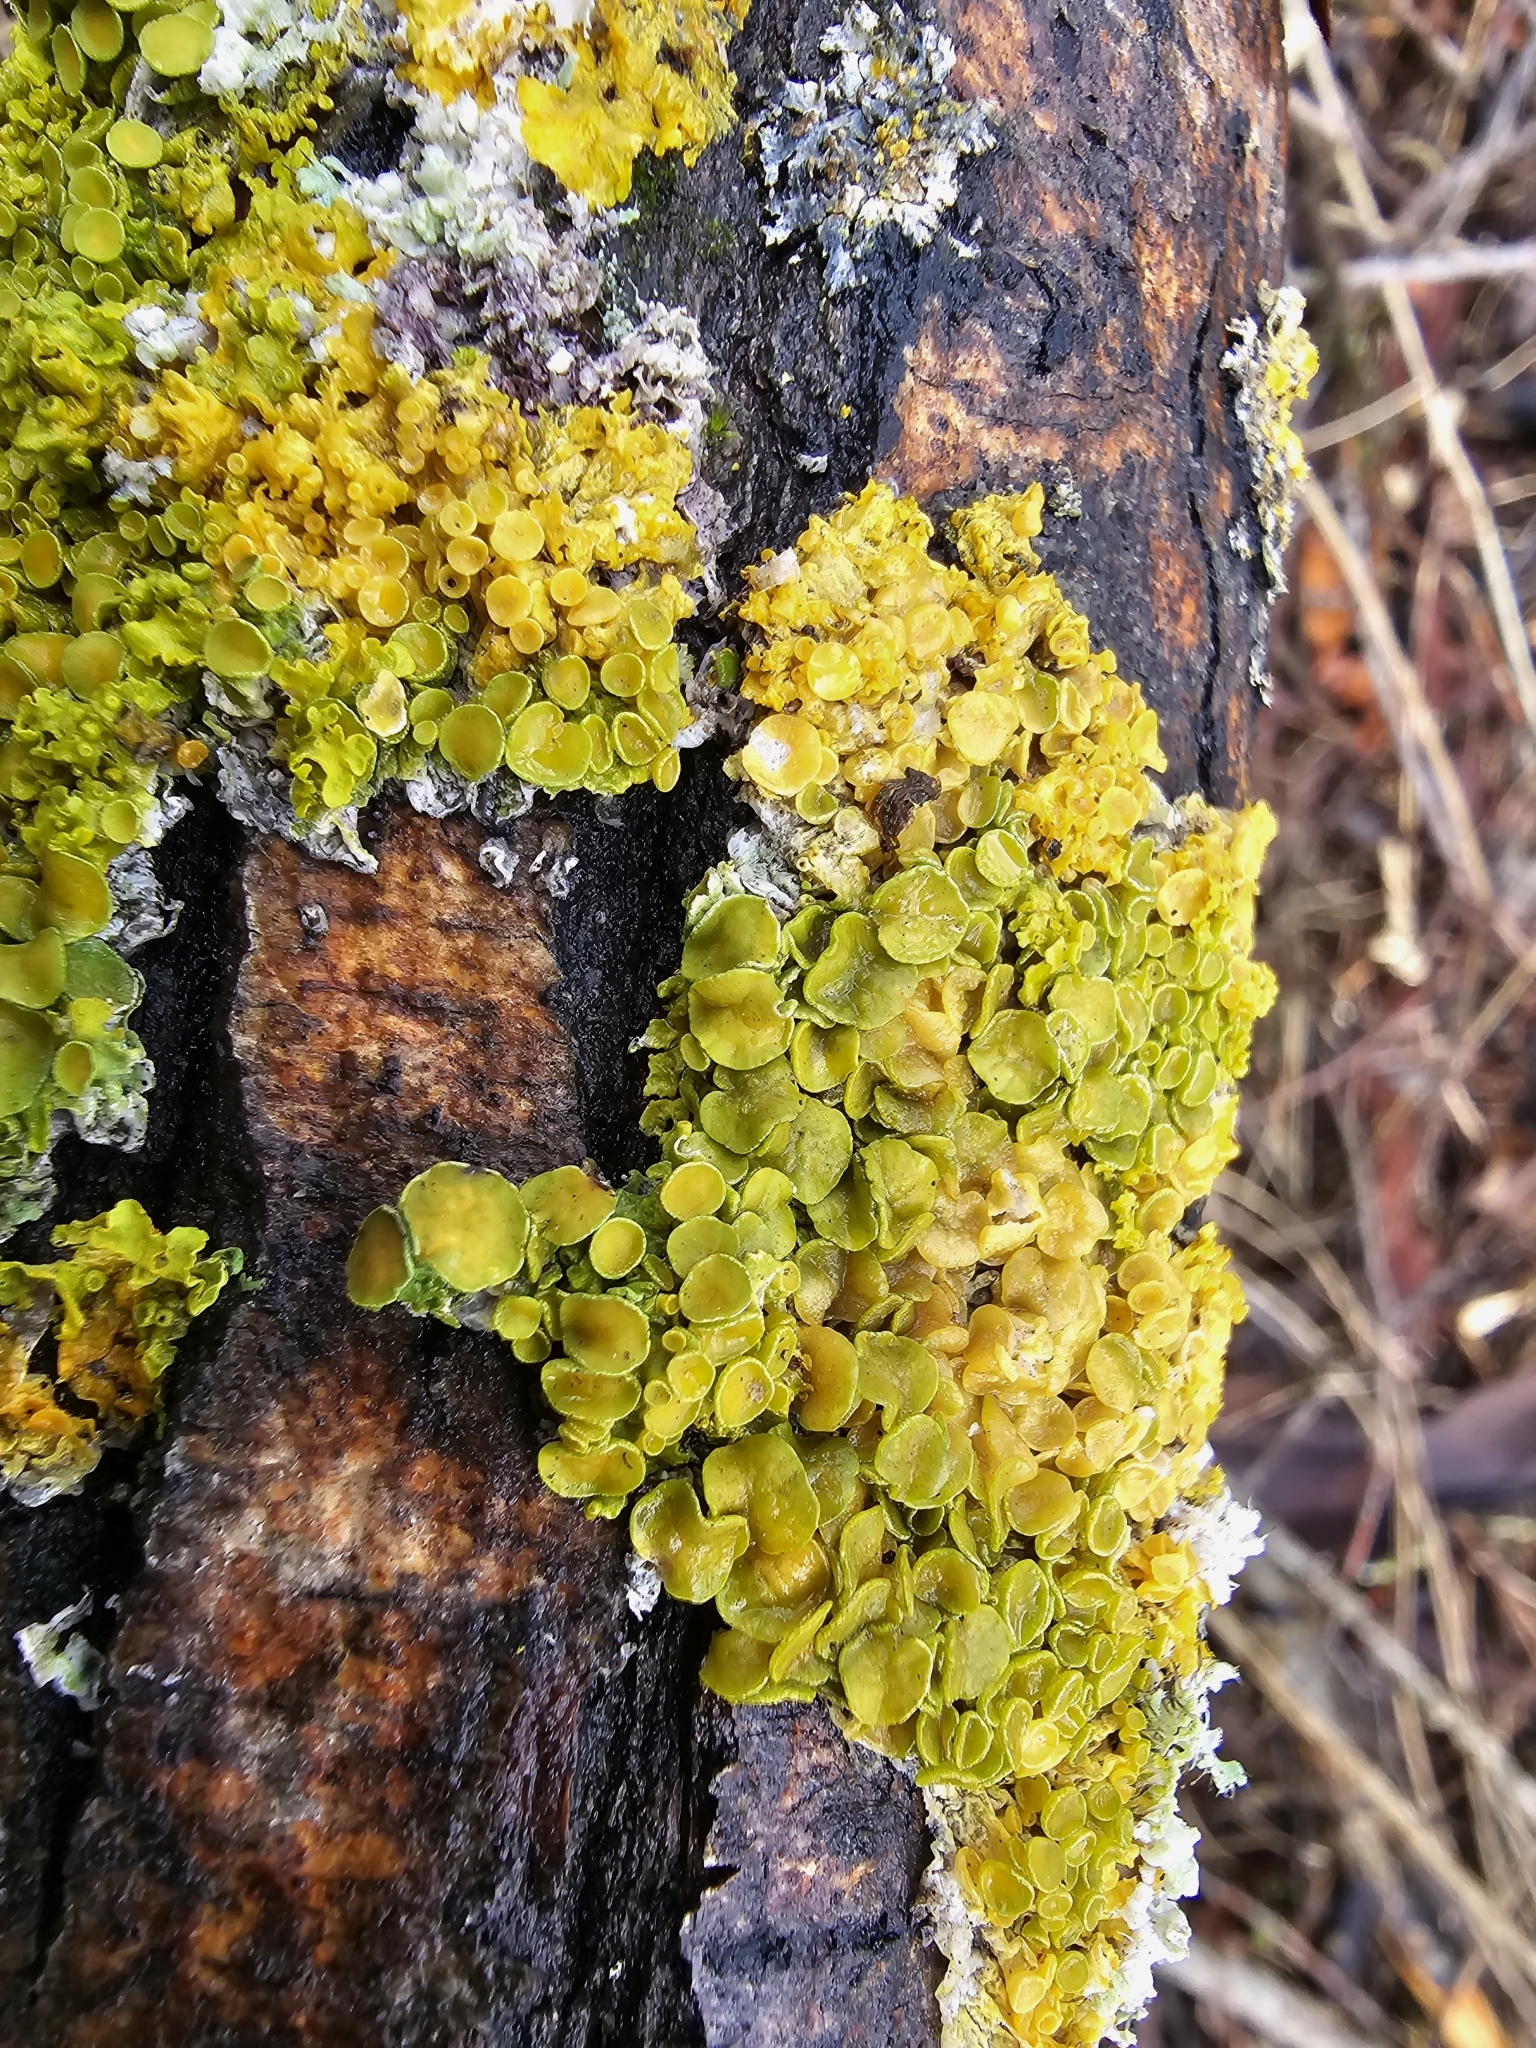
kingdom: Fungi
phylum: Ascomycota
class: Lecanoromycetes
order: Teloschistales
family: Teloschistaceae
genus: Xanthoria
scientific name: Xanthoria parietina
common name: Common orange lichen
